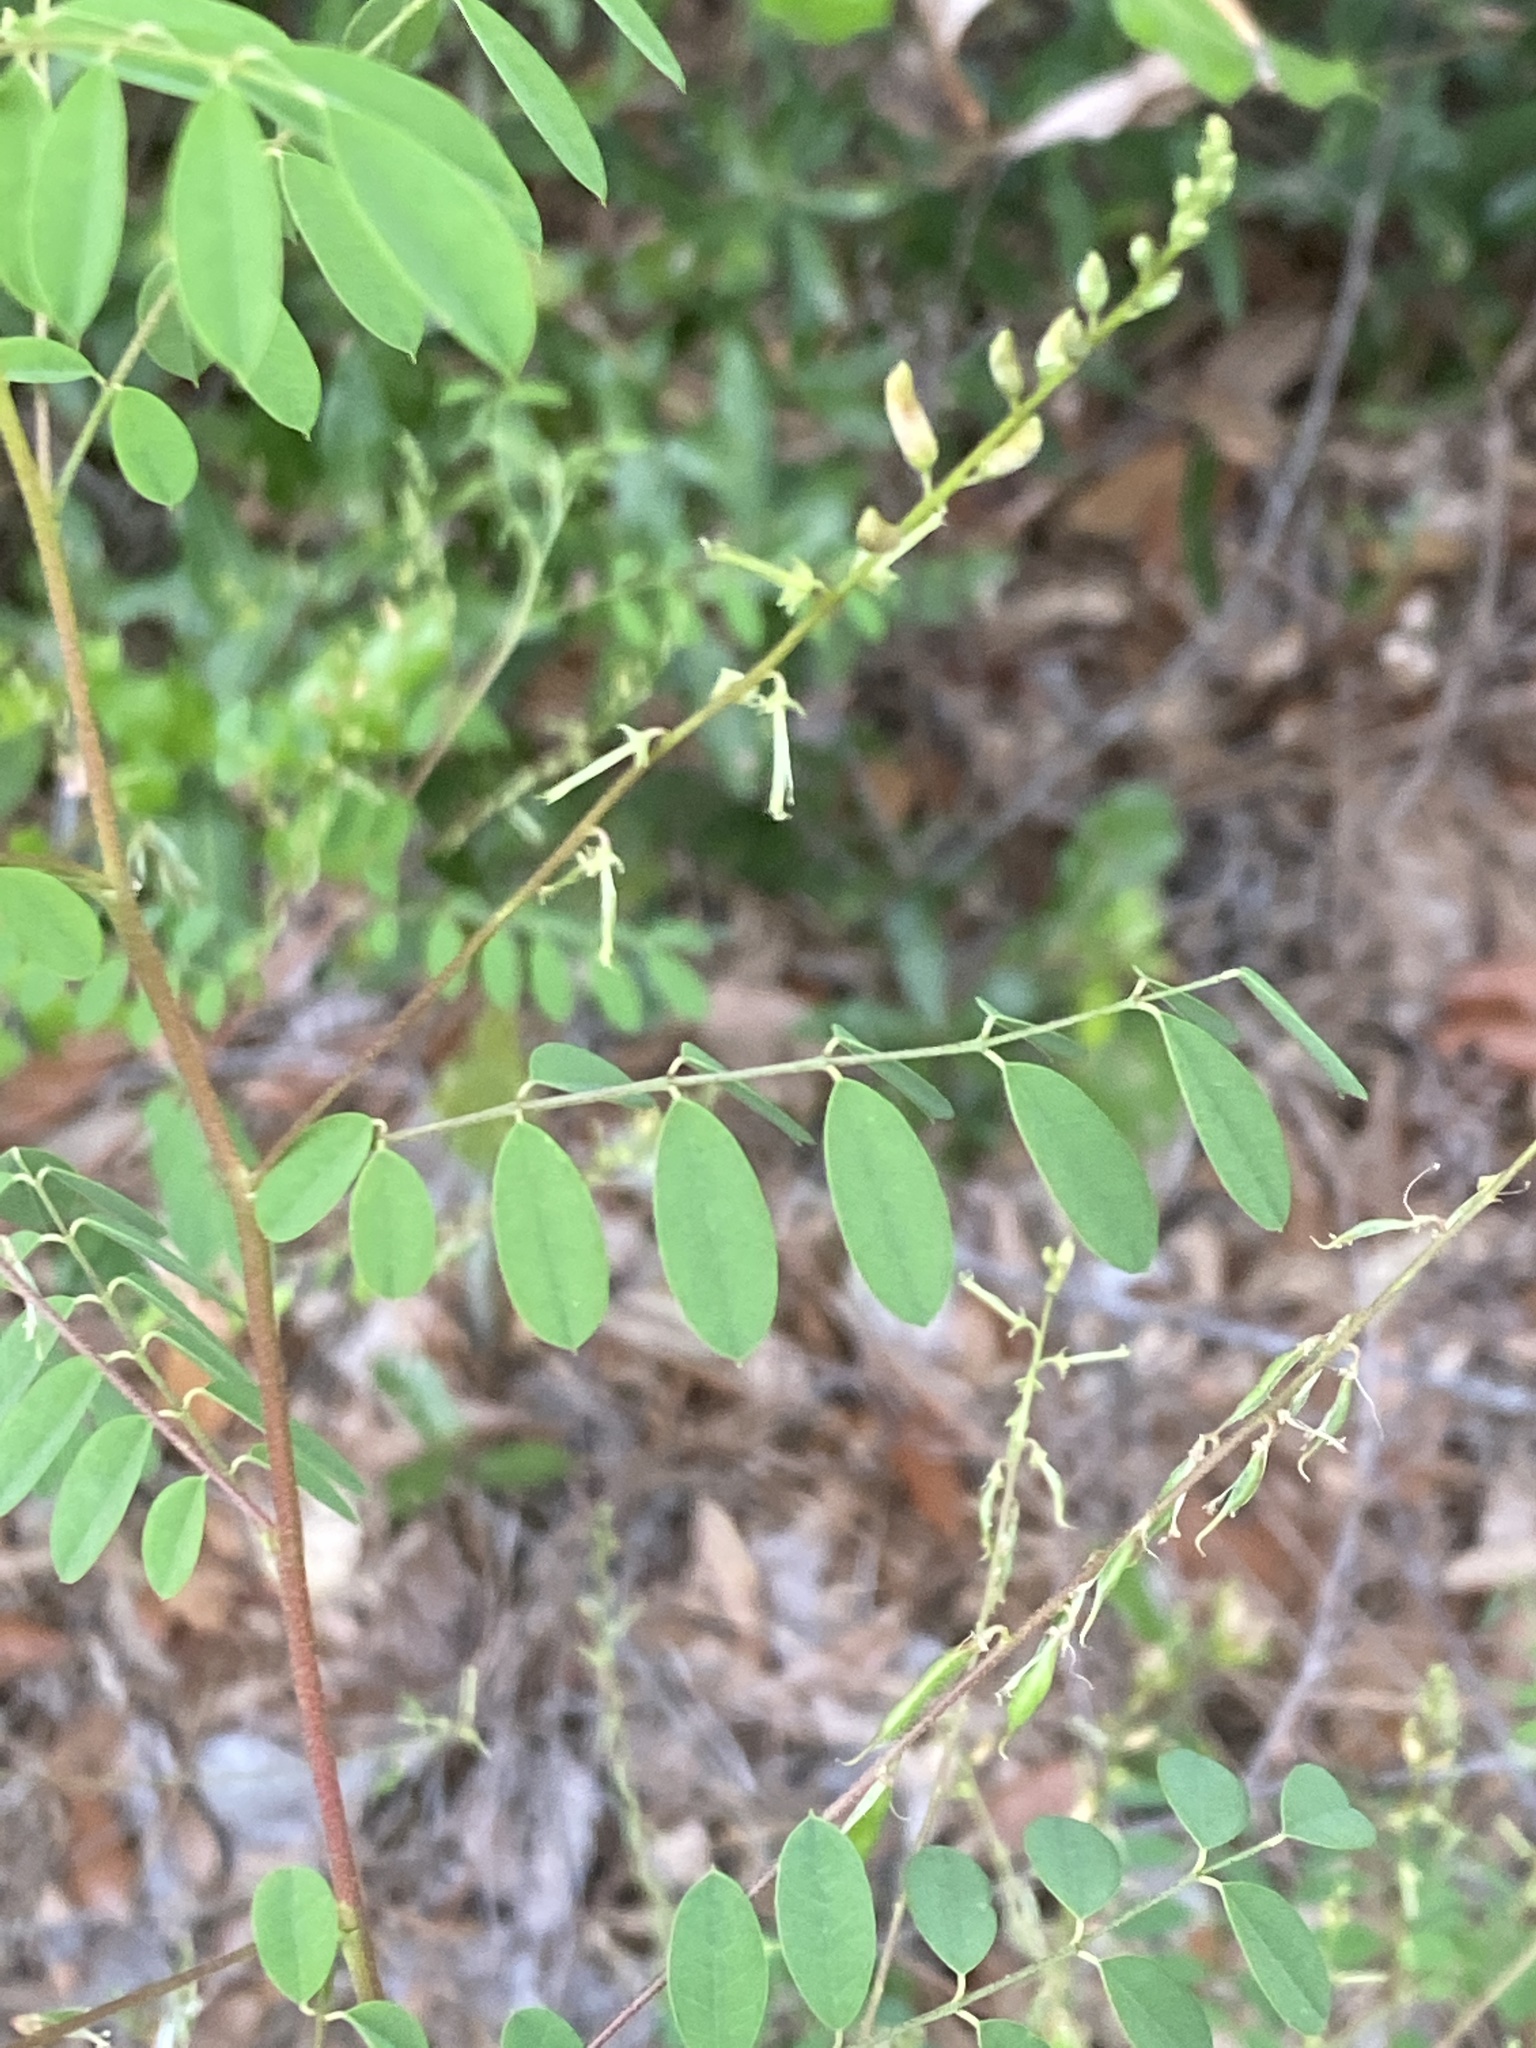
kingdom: Plantae
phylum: Tracheophyta
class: Magnoliopsida
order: Fabales
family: Fabaceae
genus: Indigofera
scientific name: Indigofera caroliniana
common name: Wild indigo
